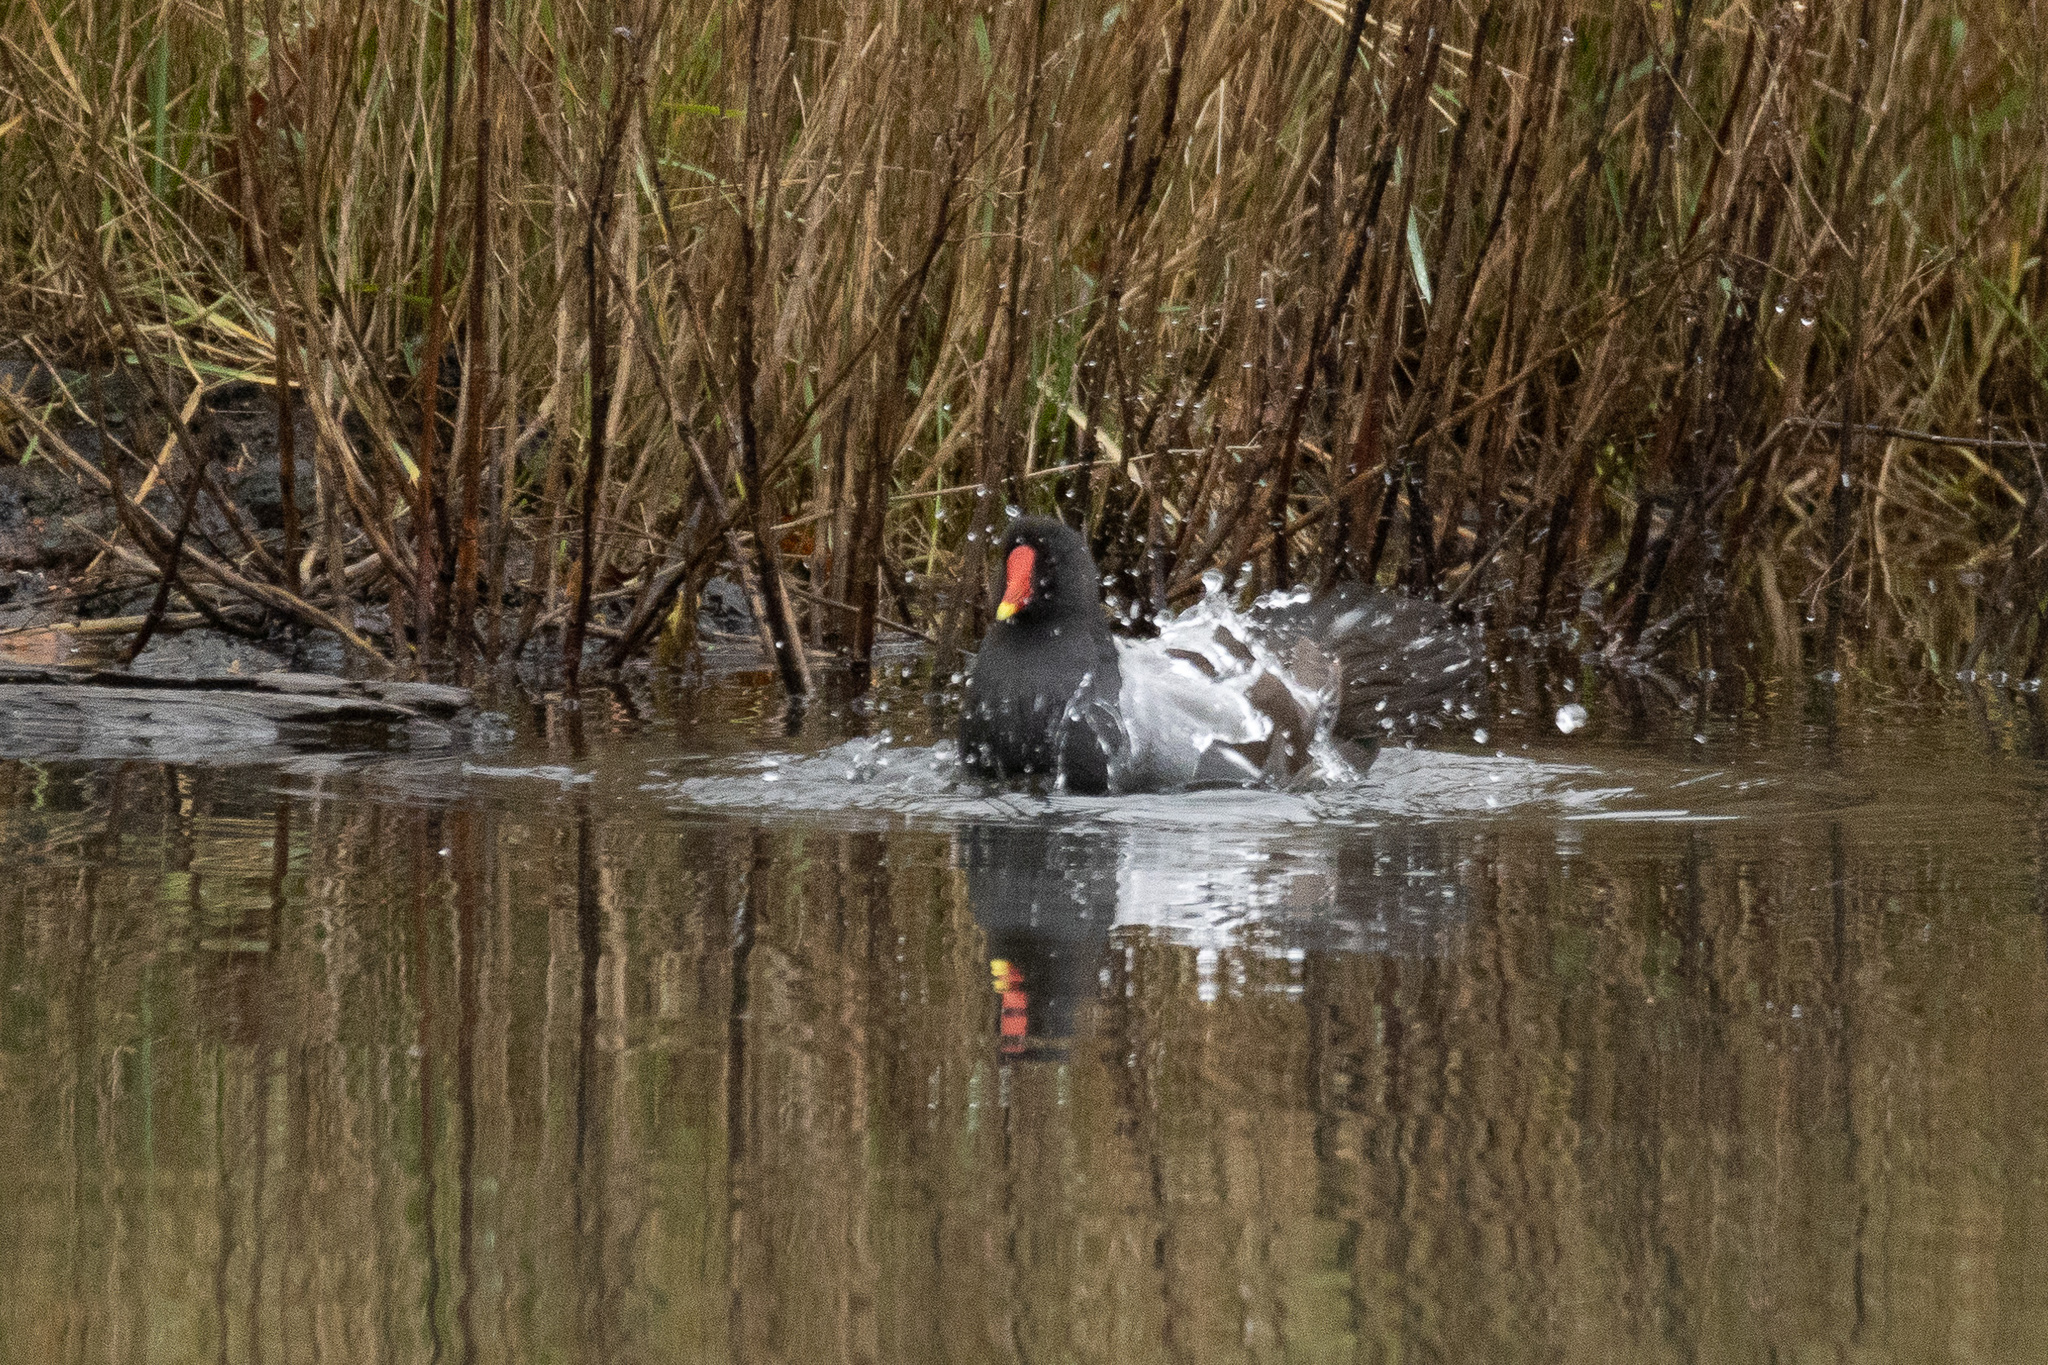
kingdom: Animalia
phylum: Chordata
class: Aves
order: Gruiformes
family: Rallidae
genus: Gallinula
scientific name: Gallinula chloropus
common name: Common moorhen
